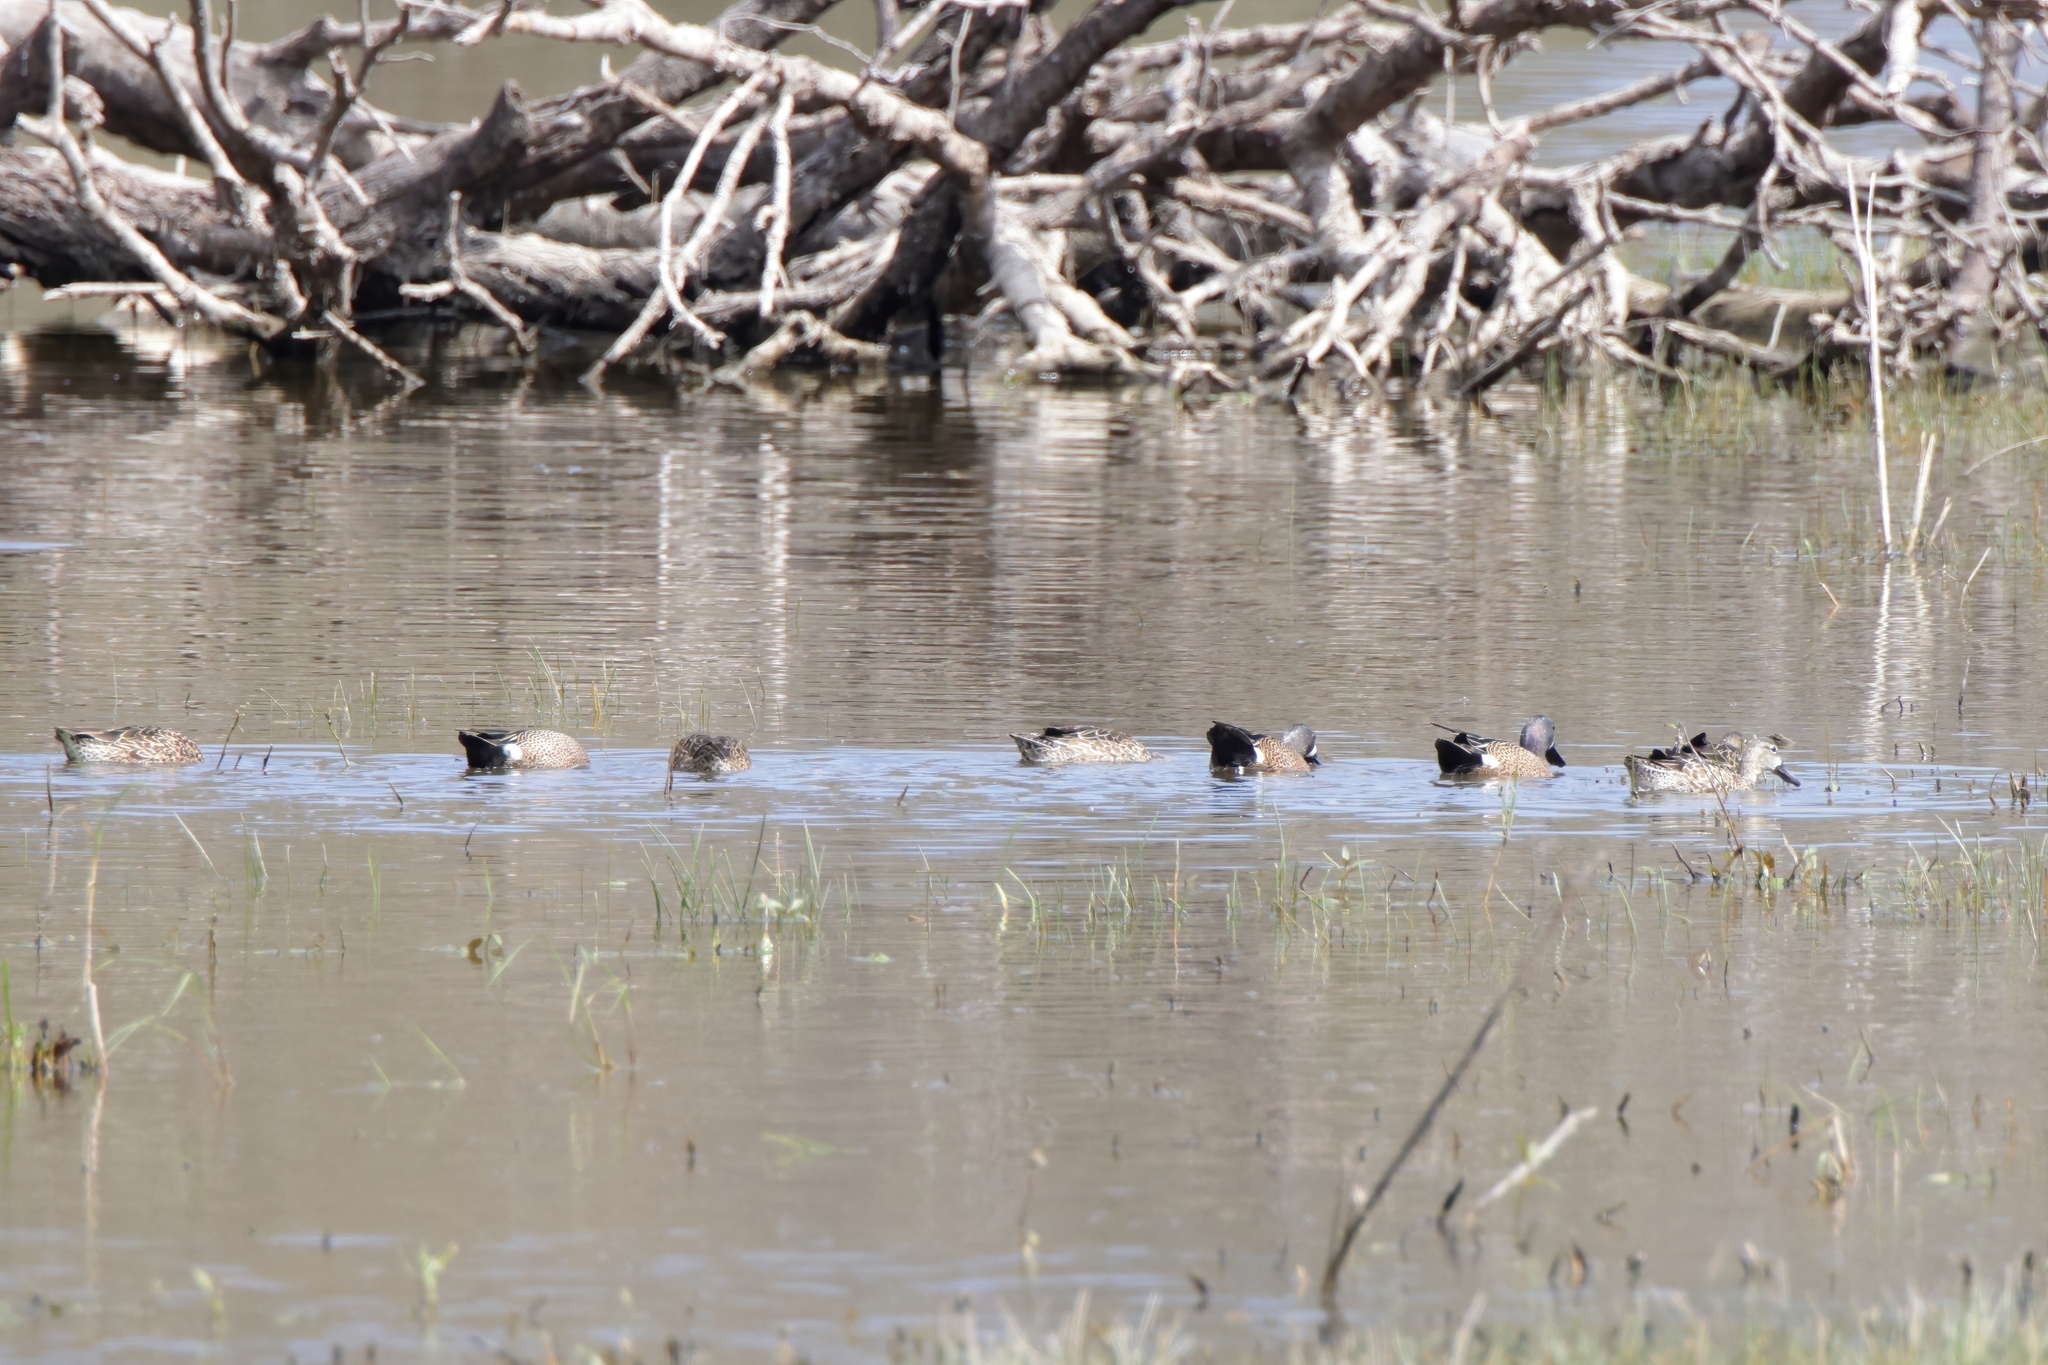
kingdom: Animalia
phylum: Chordata
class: Aves
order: Anseriformes
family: Anatidae
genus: Spatula
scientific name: Spatula discors
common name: Blue-winged teal
